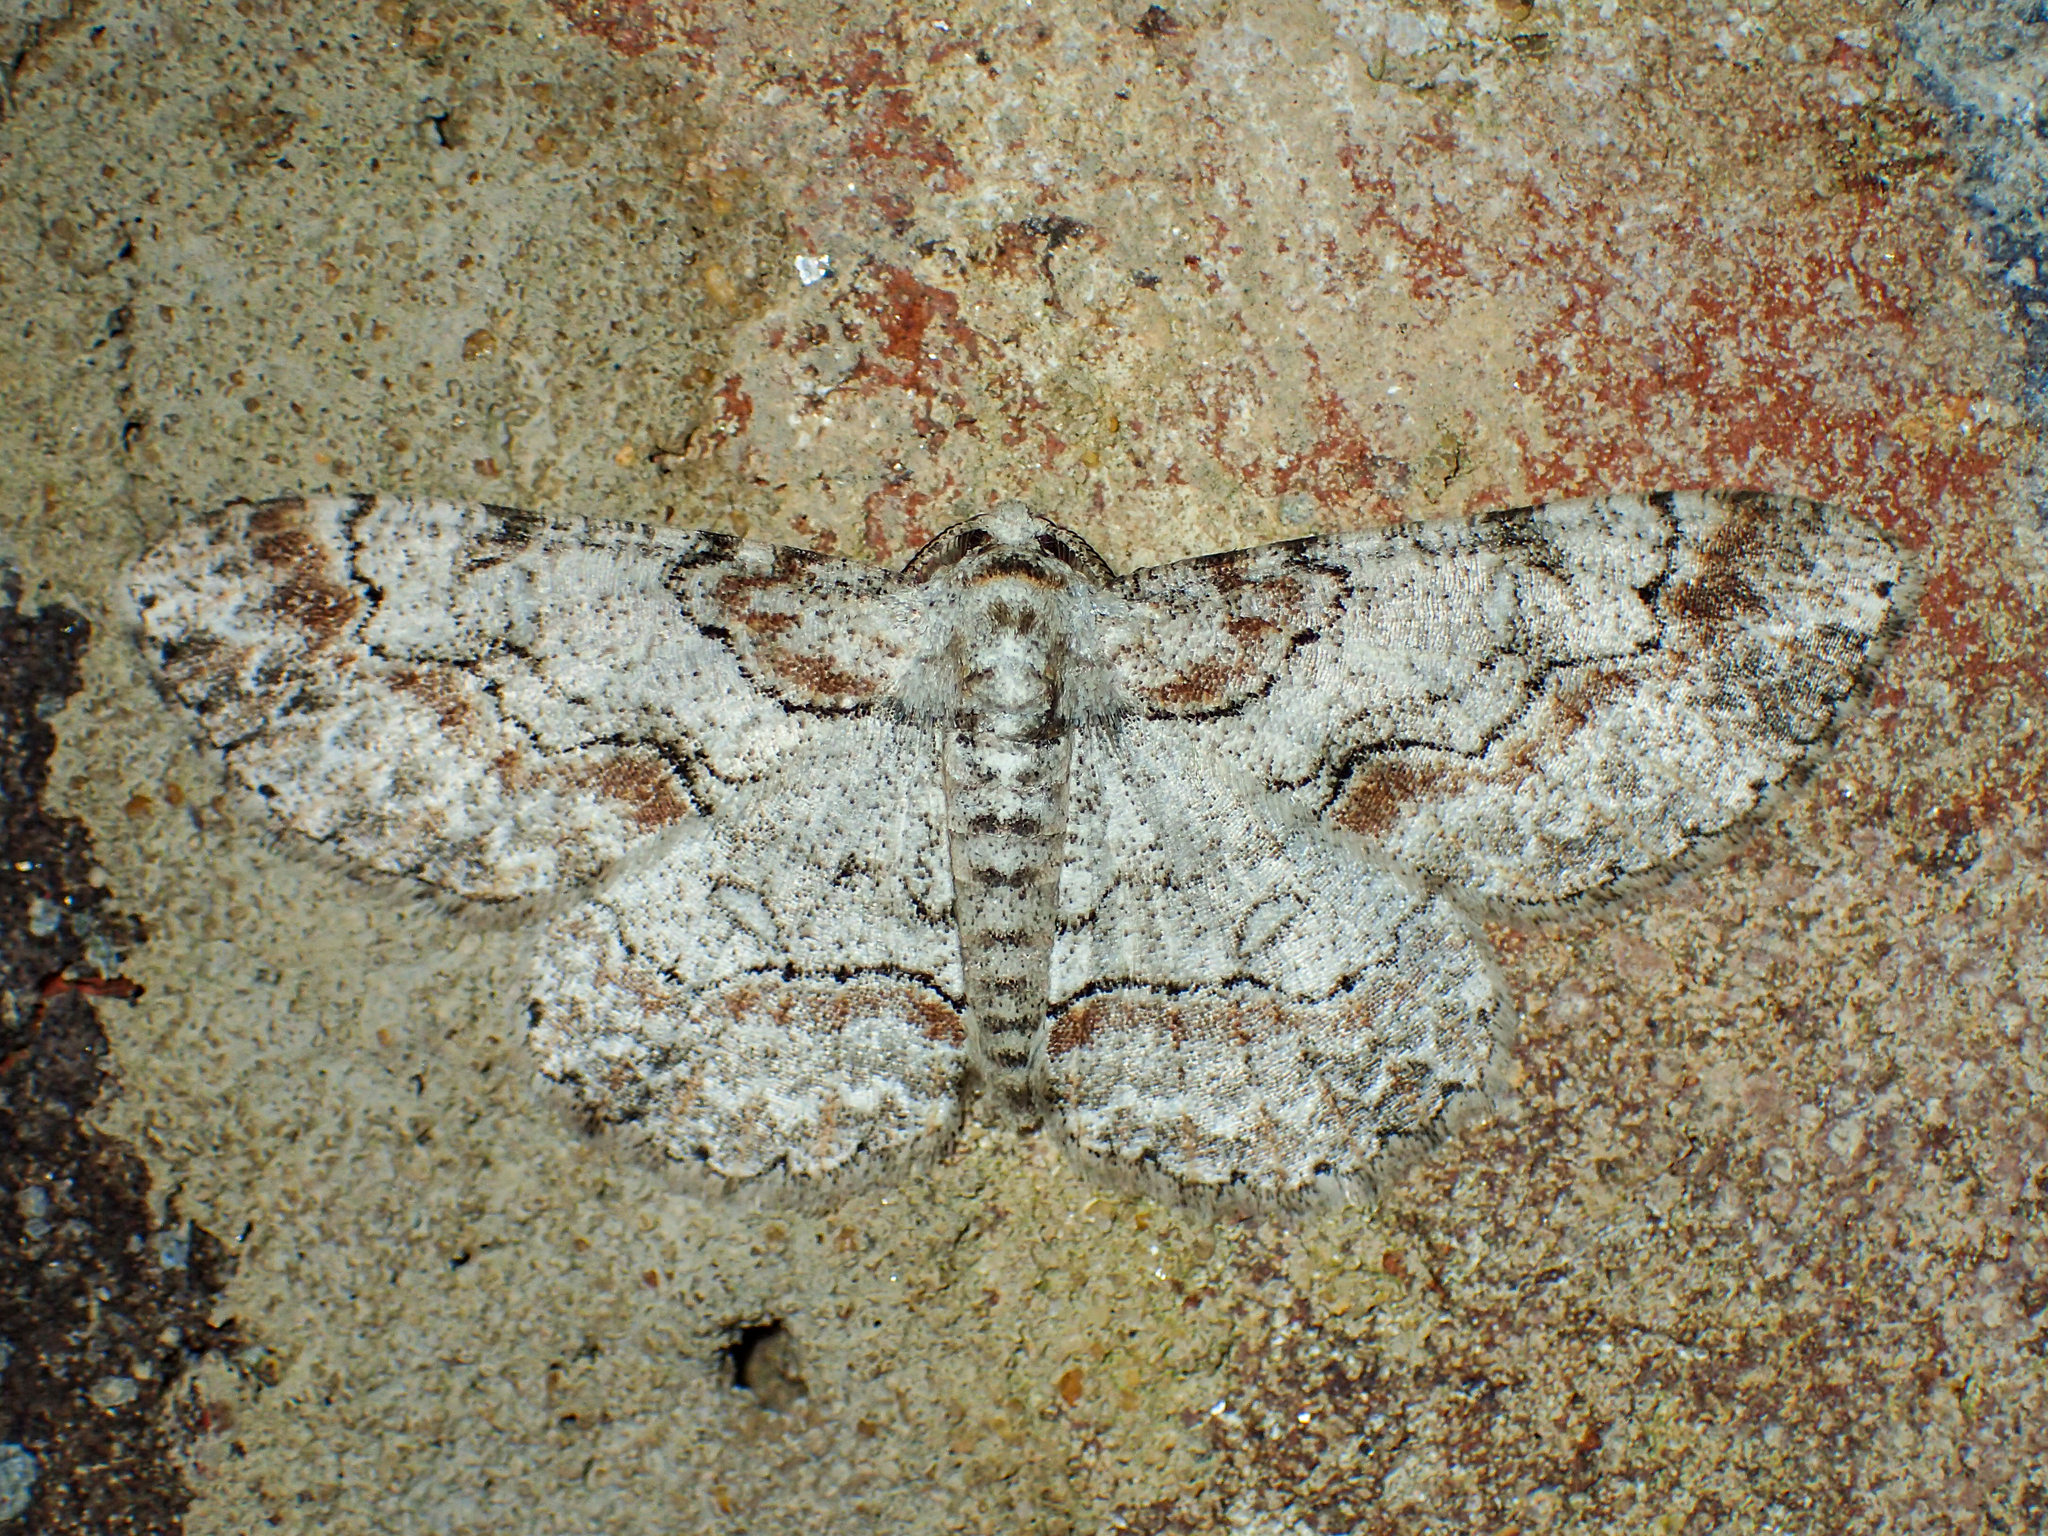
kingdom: Animalia
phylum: Arthropoda
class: Insecta
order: Lepidoptera
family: Geometridae
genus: Iridopsis
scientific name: Iridopsis defectaria
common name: Brown-shaded gray
